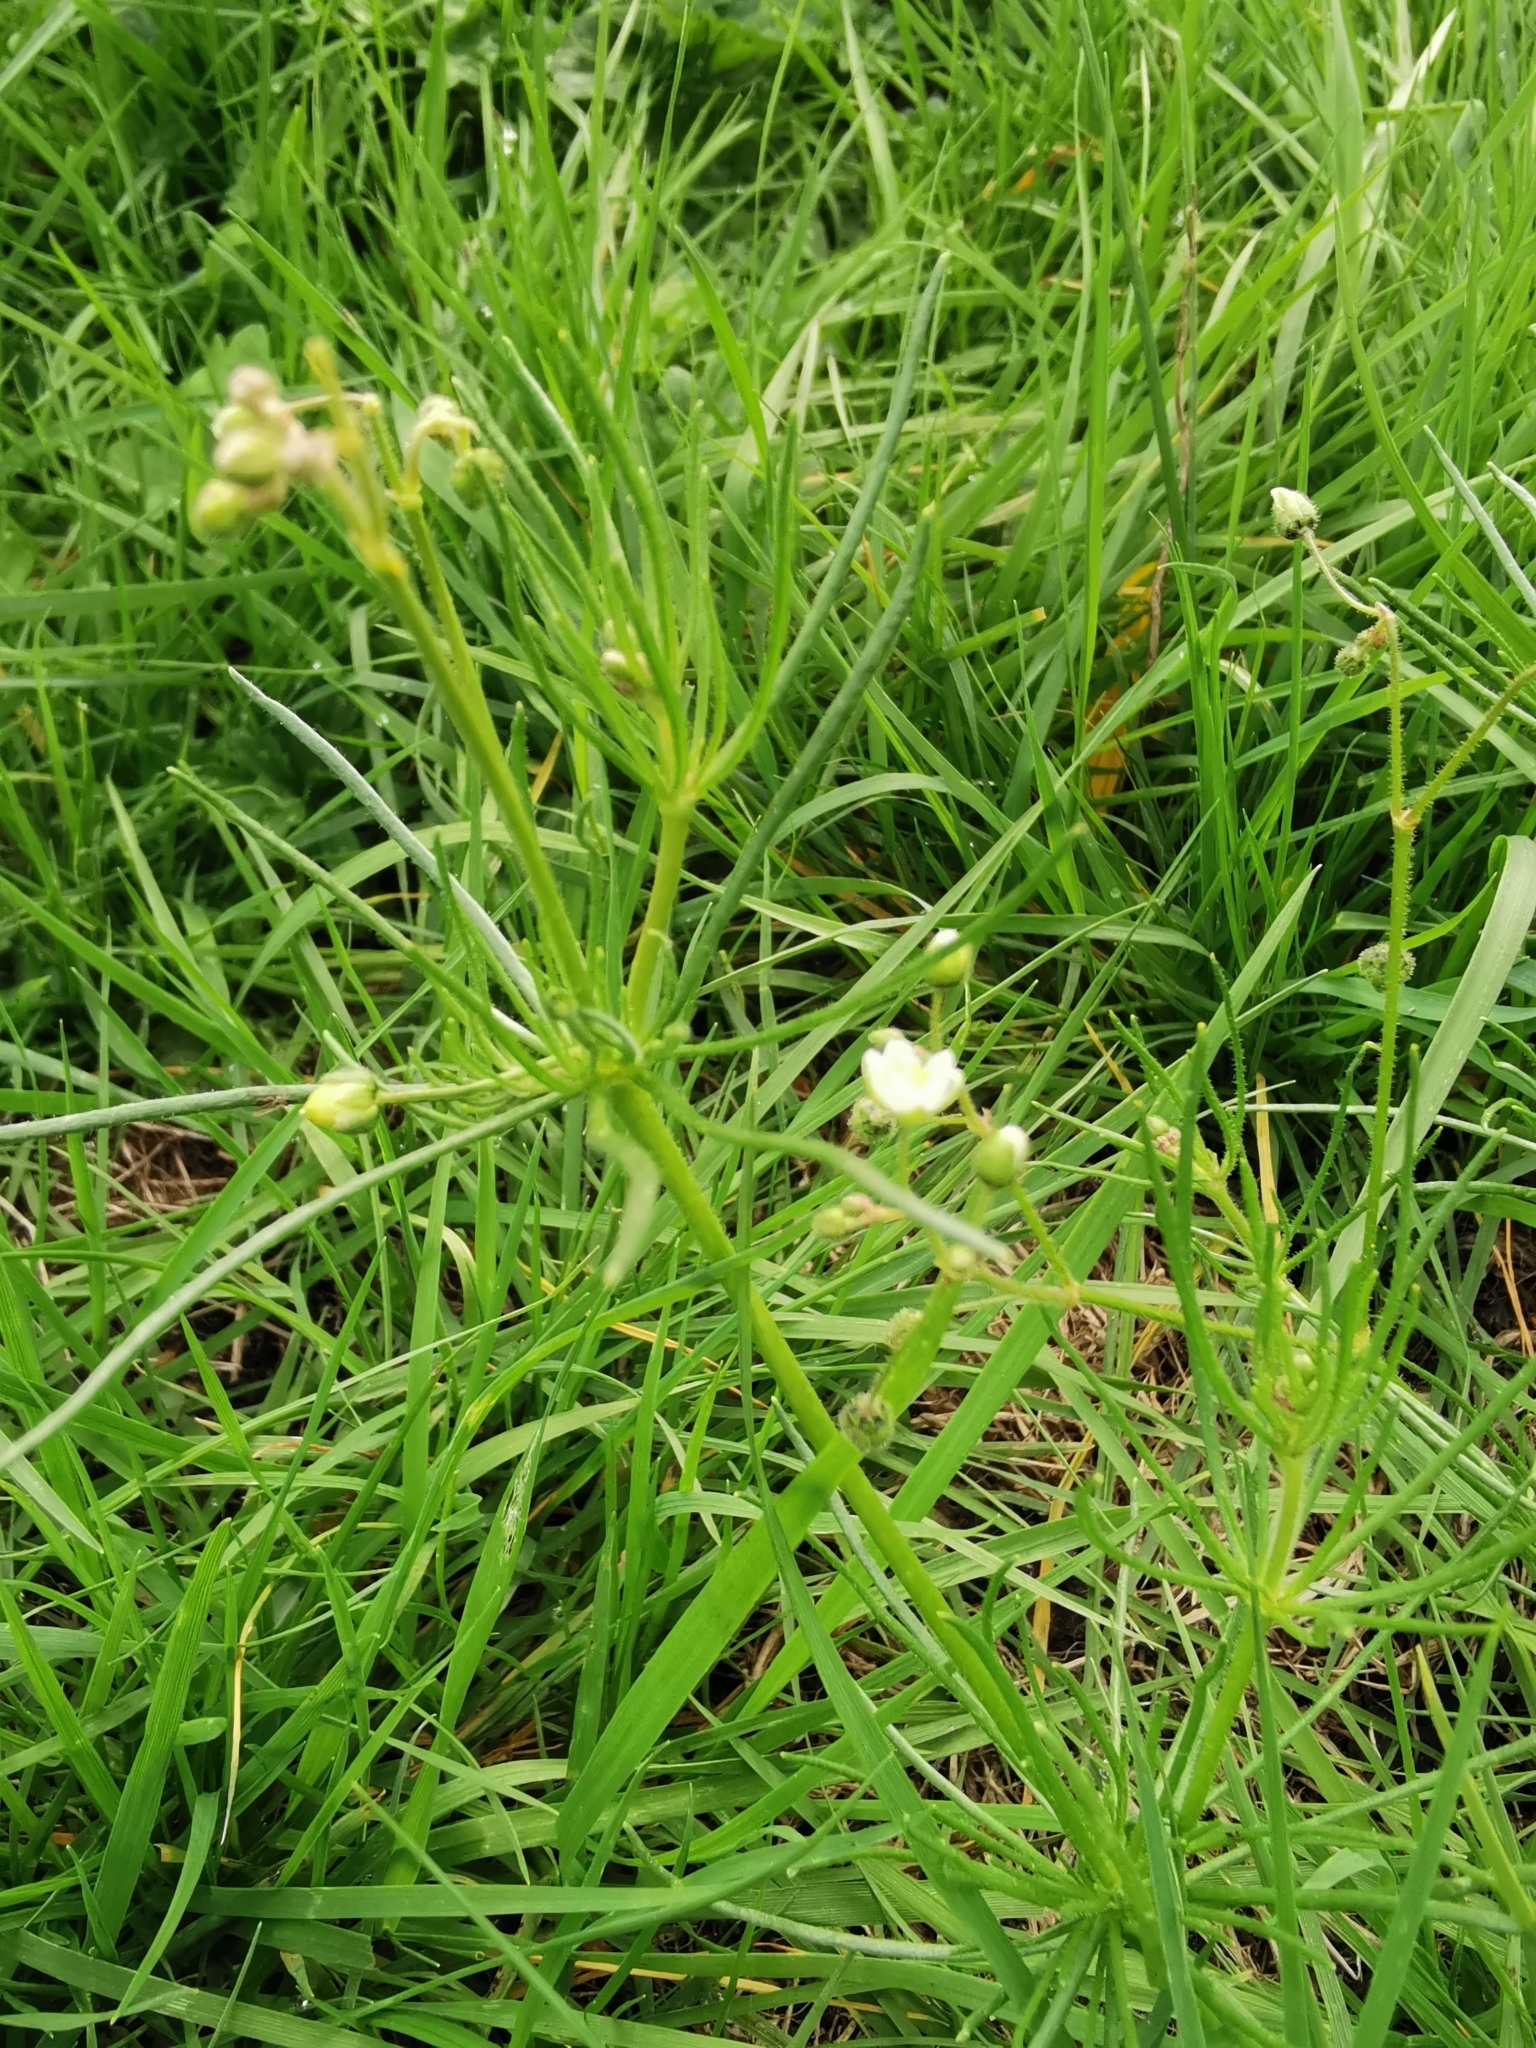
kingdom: Plantae
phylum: Tracheophyta
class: Magnoliopsida
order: Caryophyllales
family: Caryophyllaceae
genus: Spergula
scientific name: Spergula arvensis
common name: Corn spurrey
